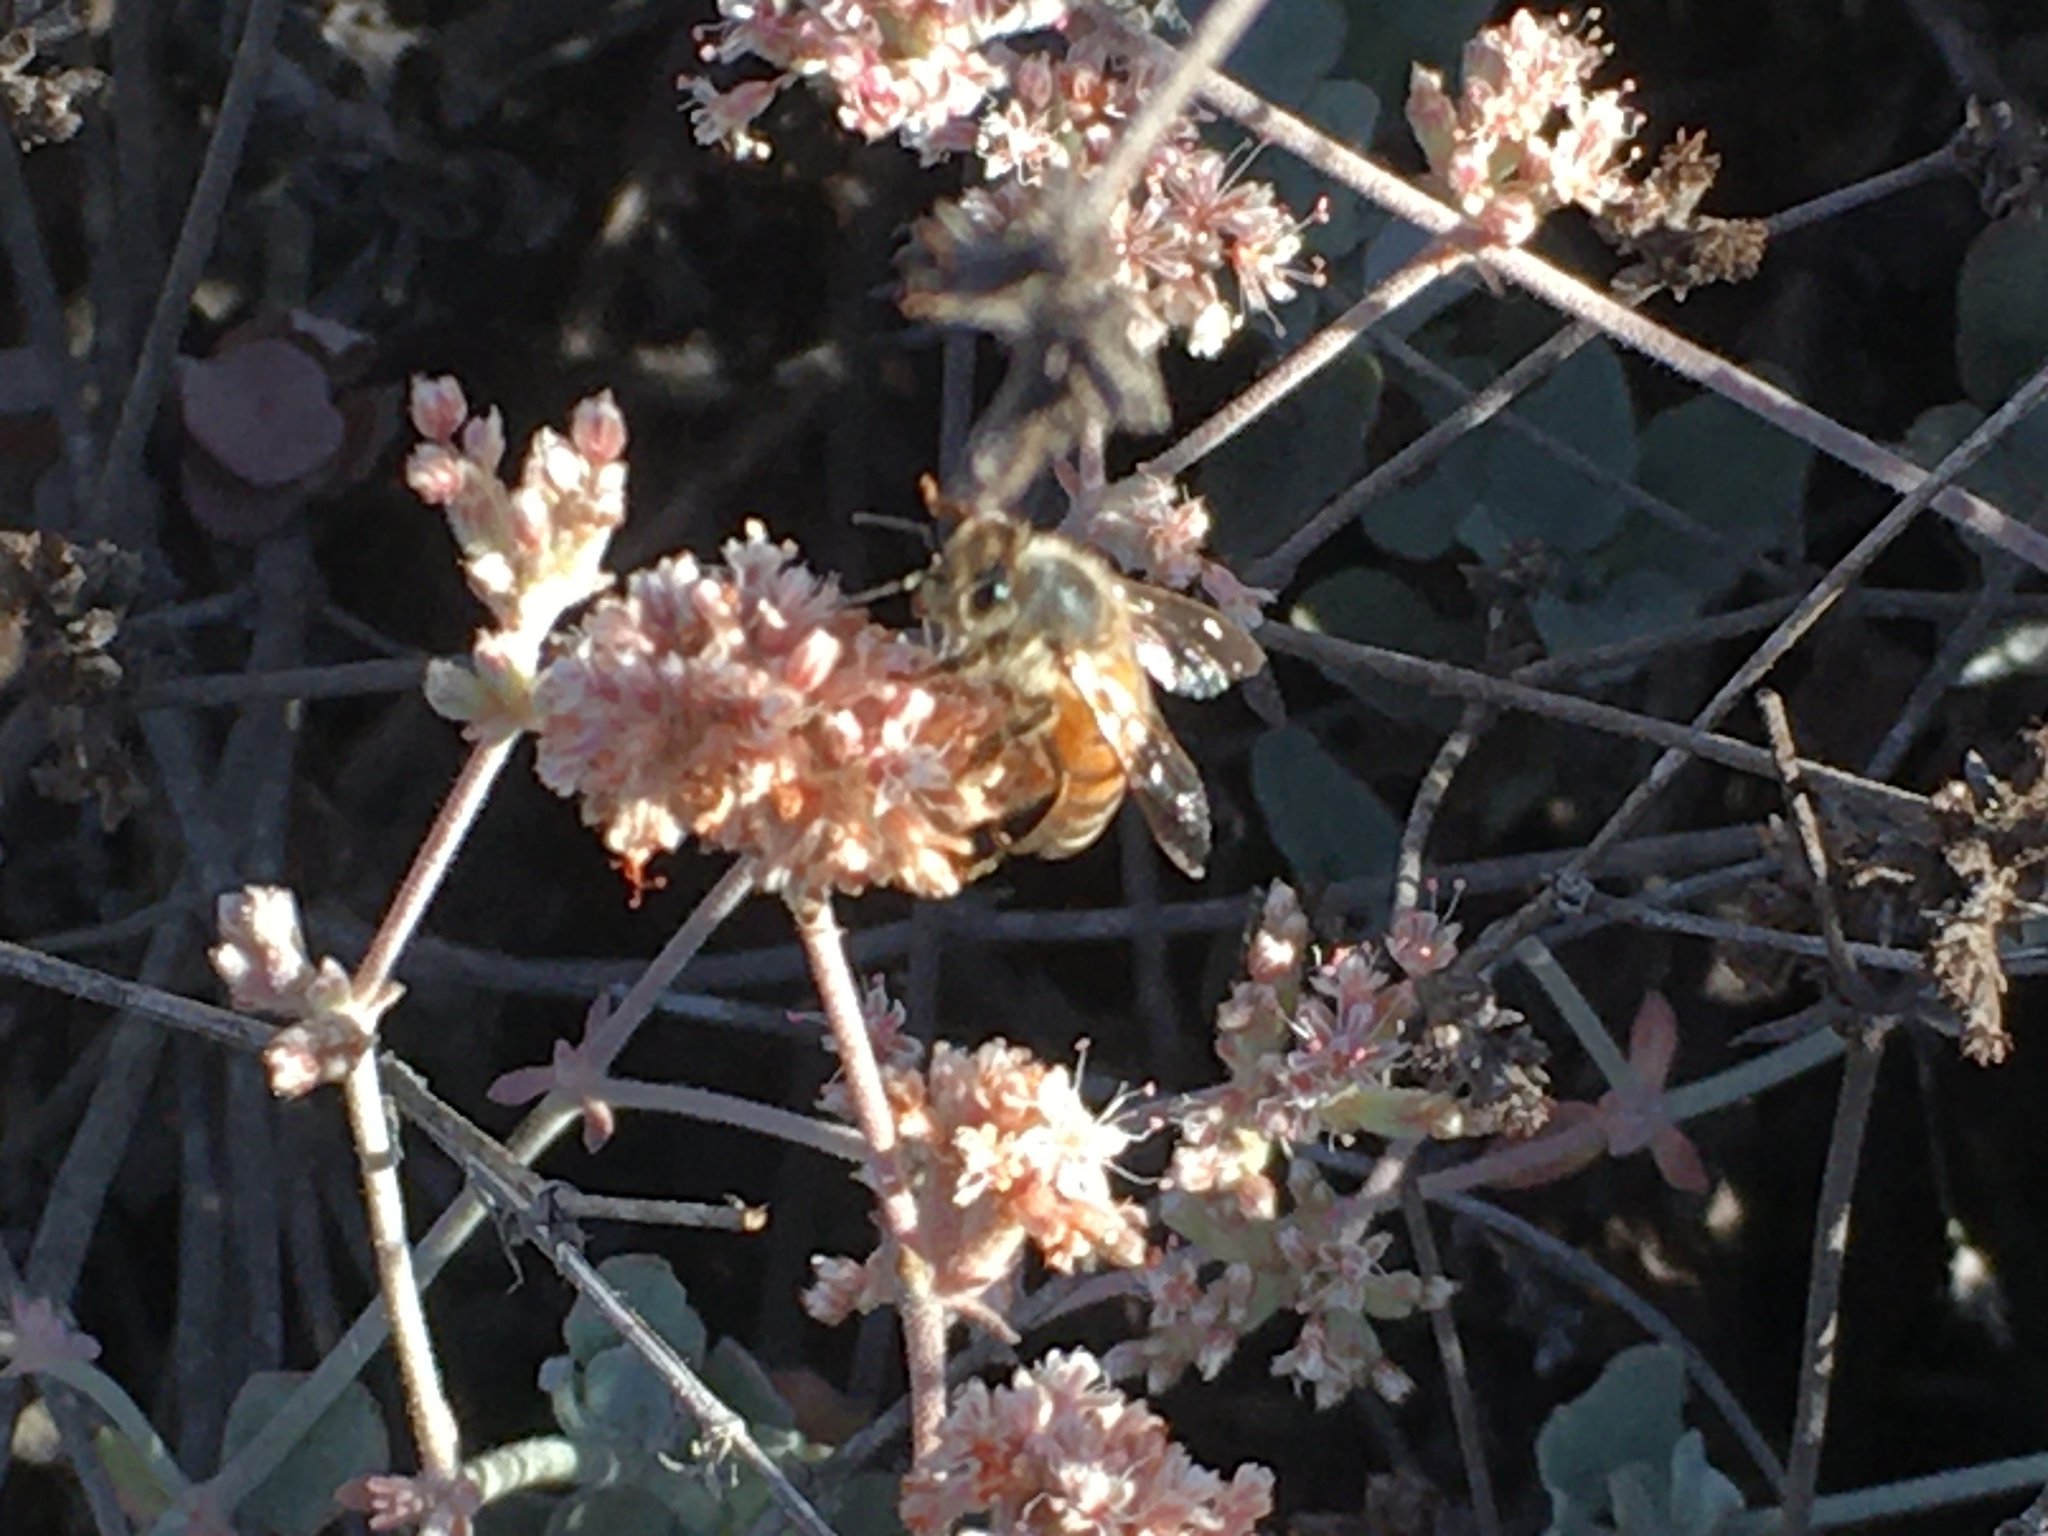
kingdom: Animalia
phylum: Arthropoda
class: Insecta
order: Hymenoptera
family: Apidae
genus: Apis
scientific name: Apis mellifera
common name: Honey bee
